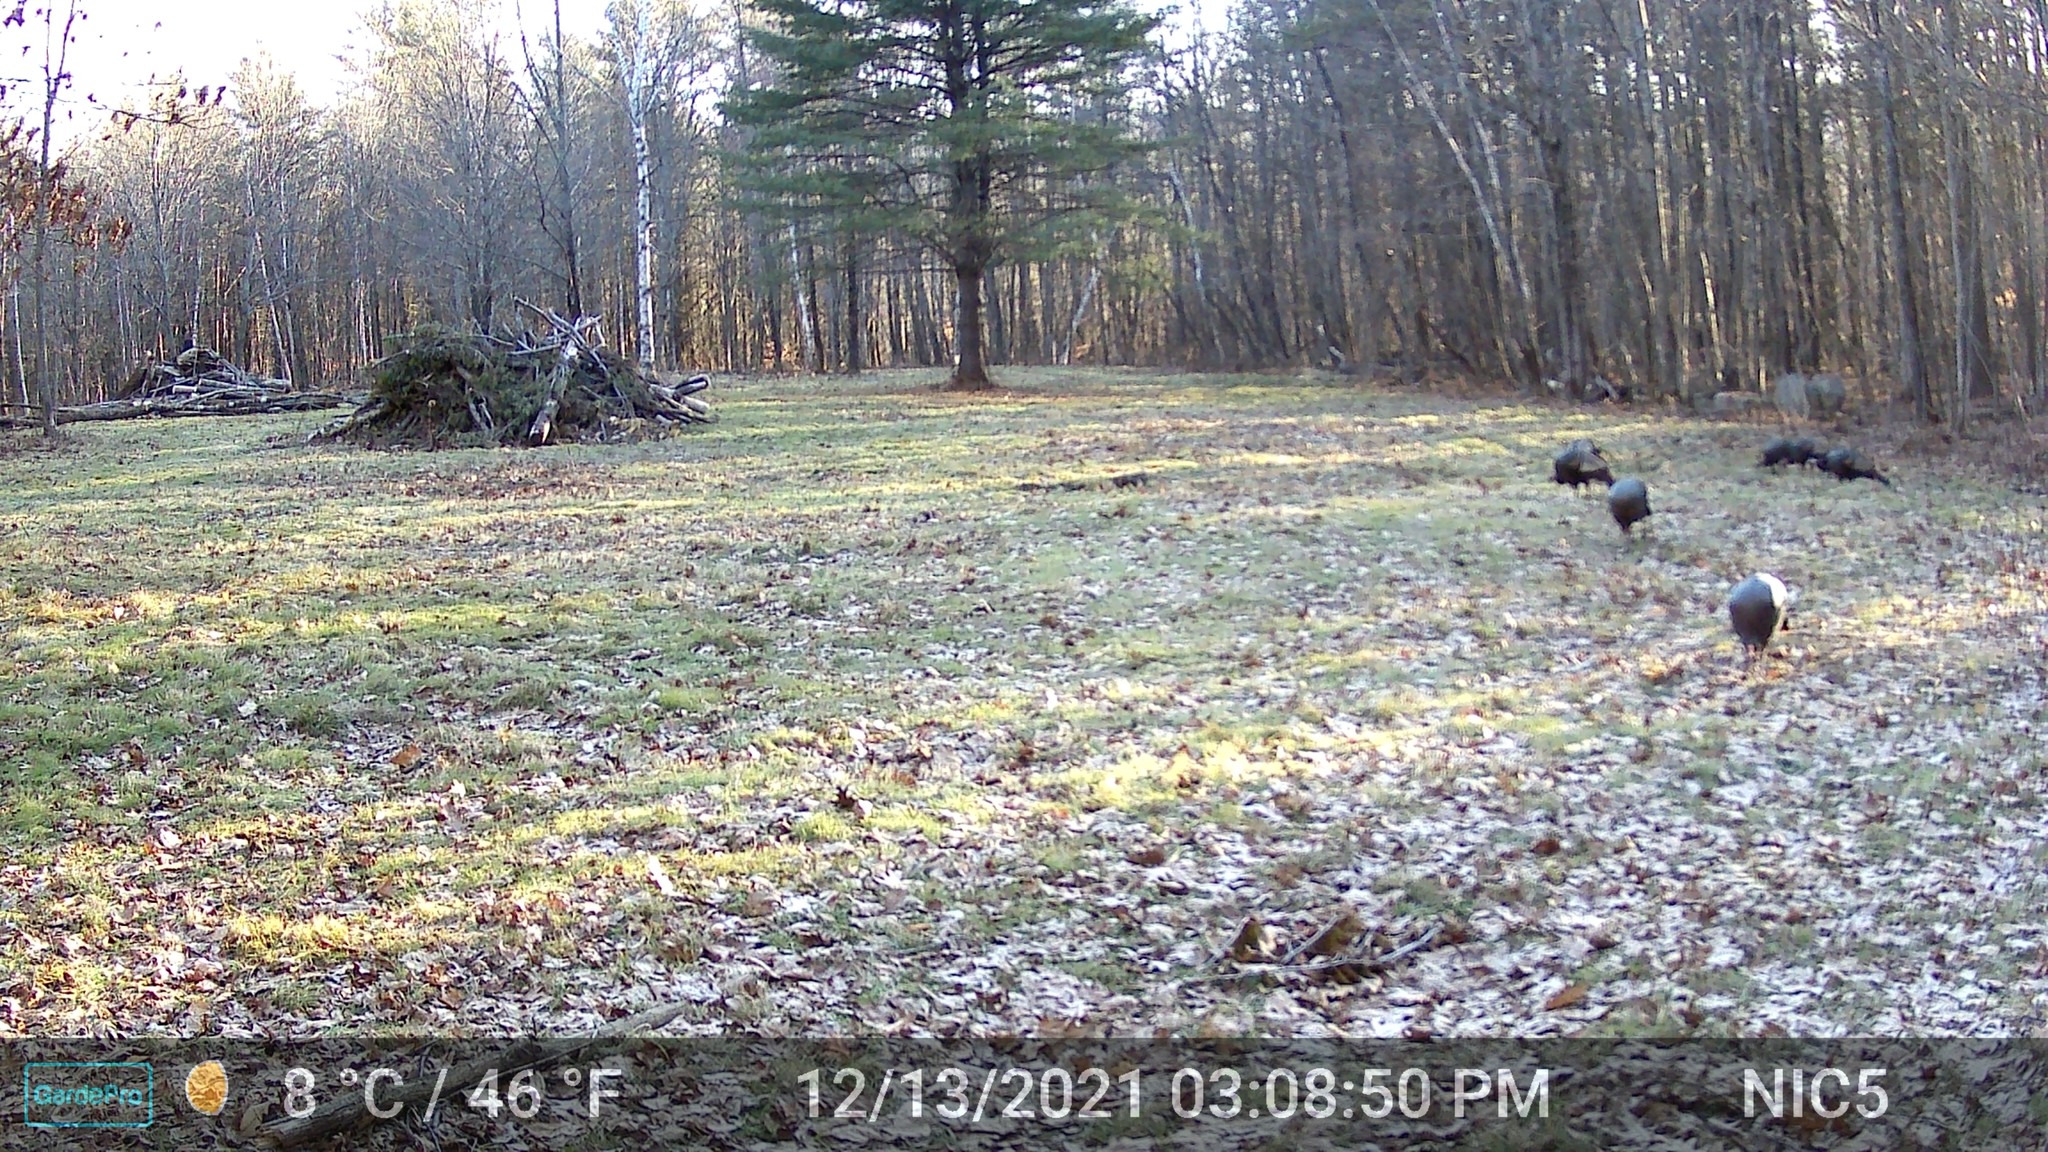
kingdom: Animalia
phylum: Chordata
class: Aves
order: Galliformes
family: Phasianidae
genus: Meleagris
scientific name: Meleagris gallopavo
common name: Wild turkey
